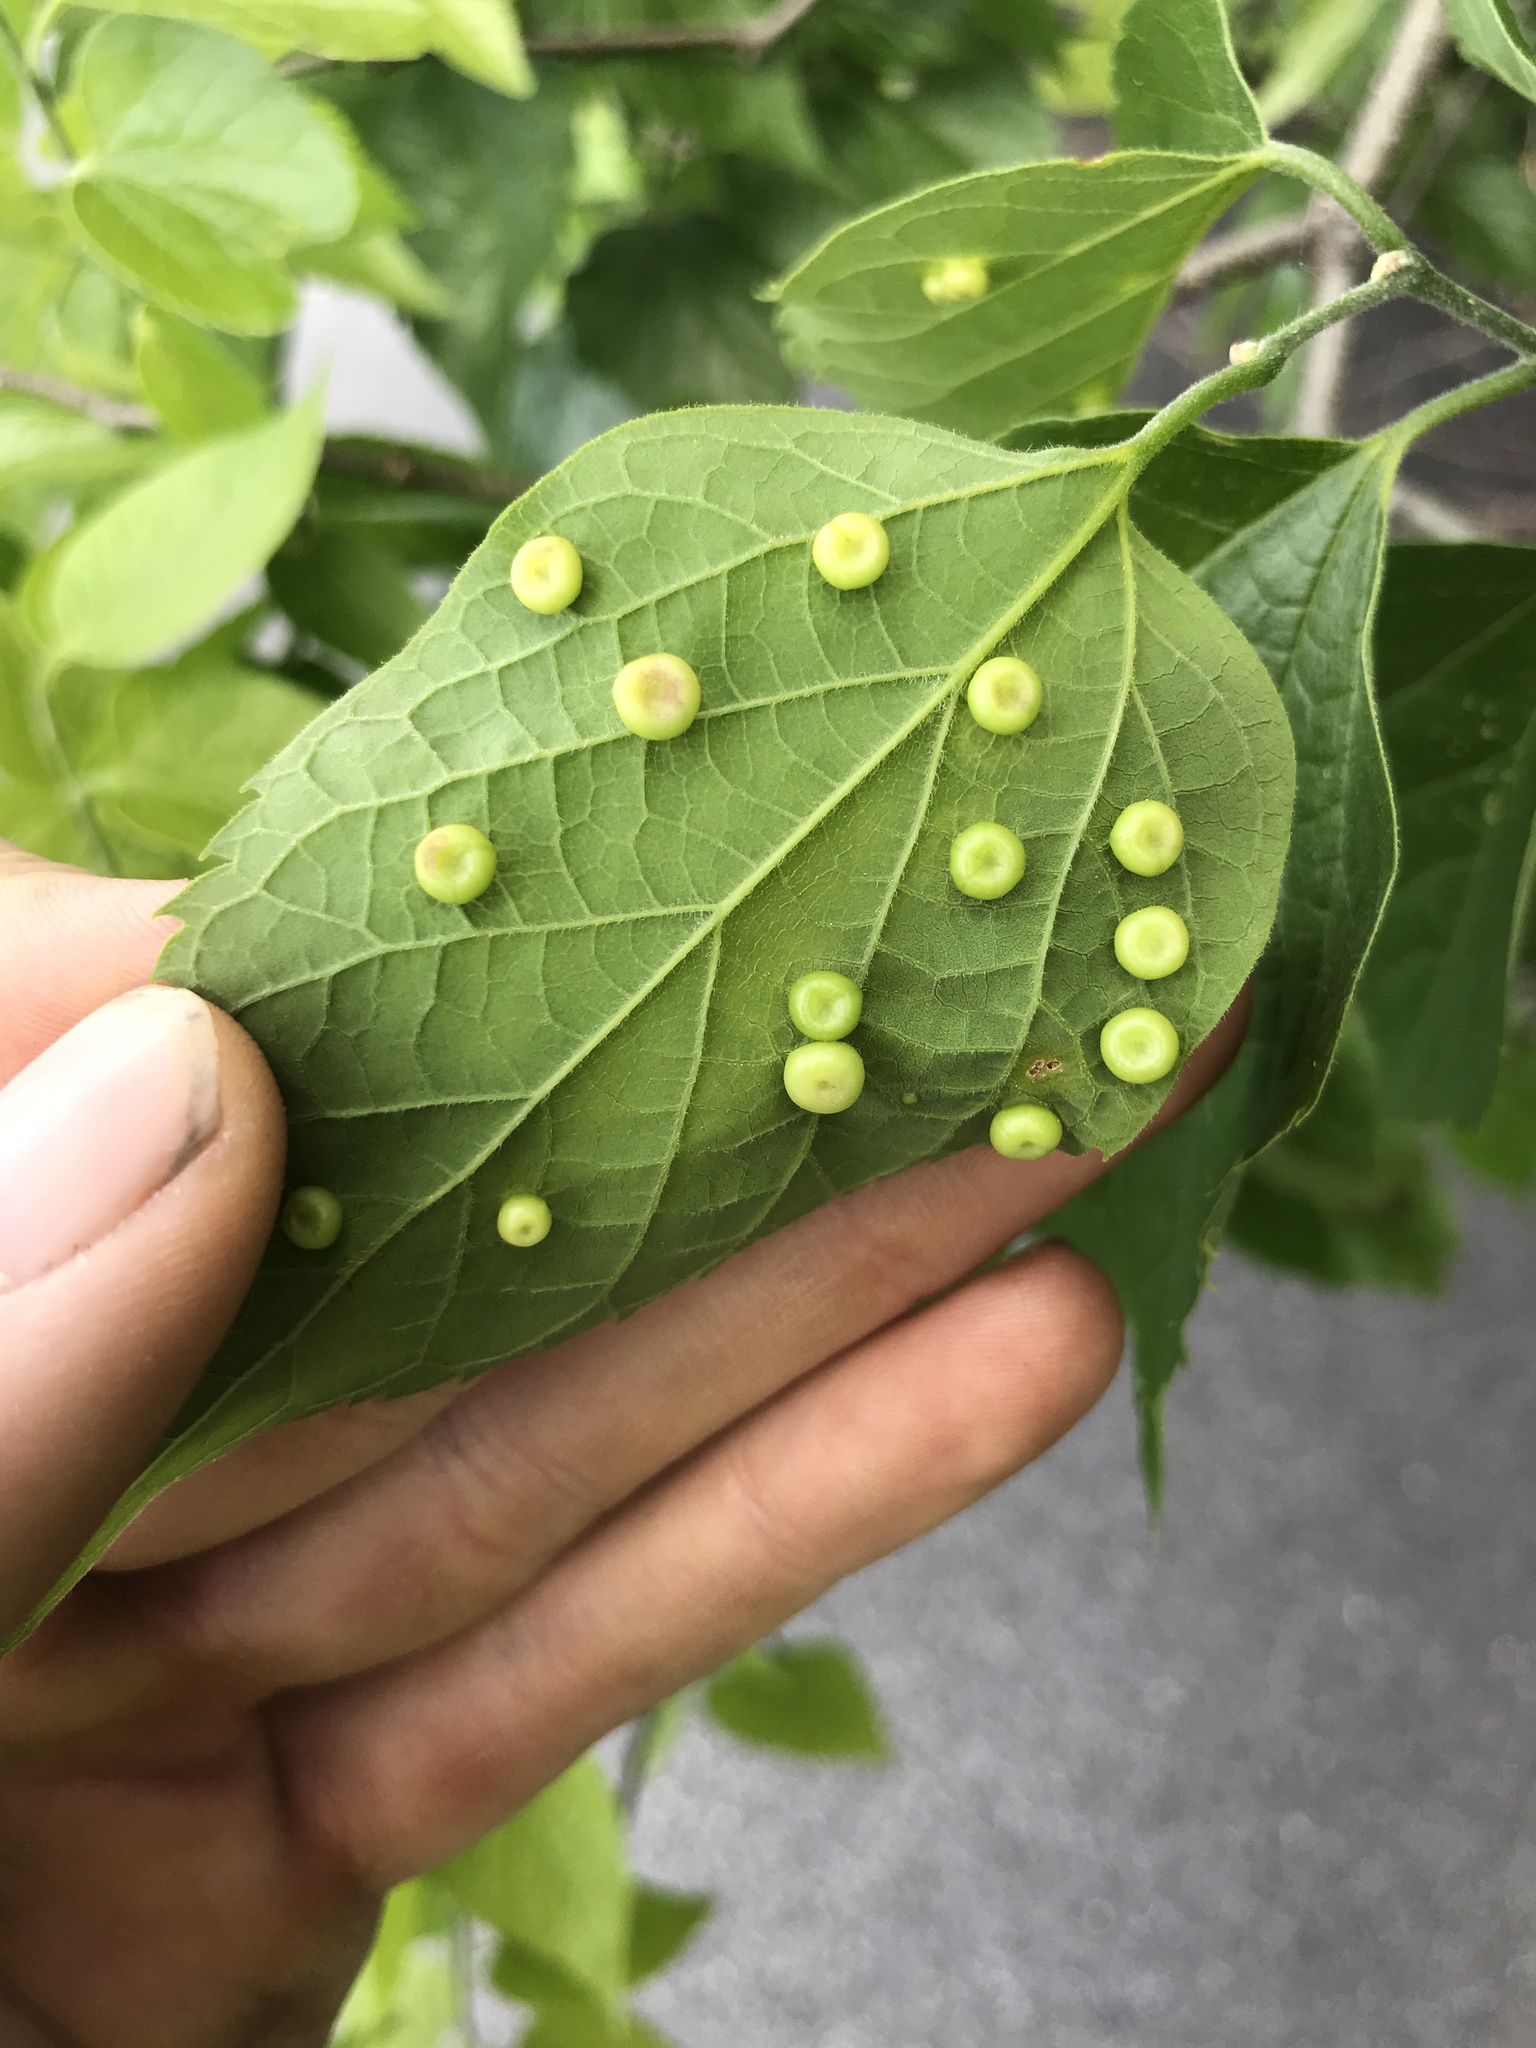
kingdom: Animalia
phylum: Arthropoda
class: Insecta
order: Hemiptera
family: Aphalaridae
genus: Pachypsylla
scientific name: Pachypsylla celtidismamma
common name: Hackberry nipplegall psyllid
